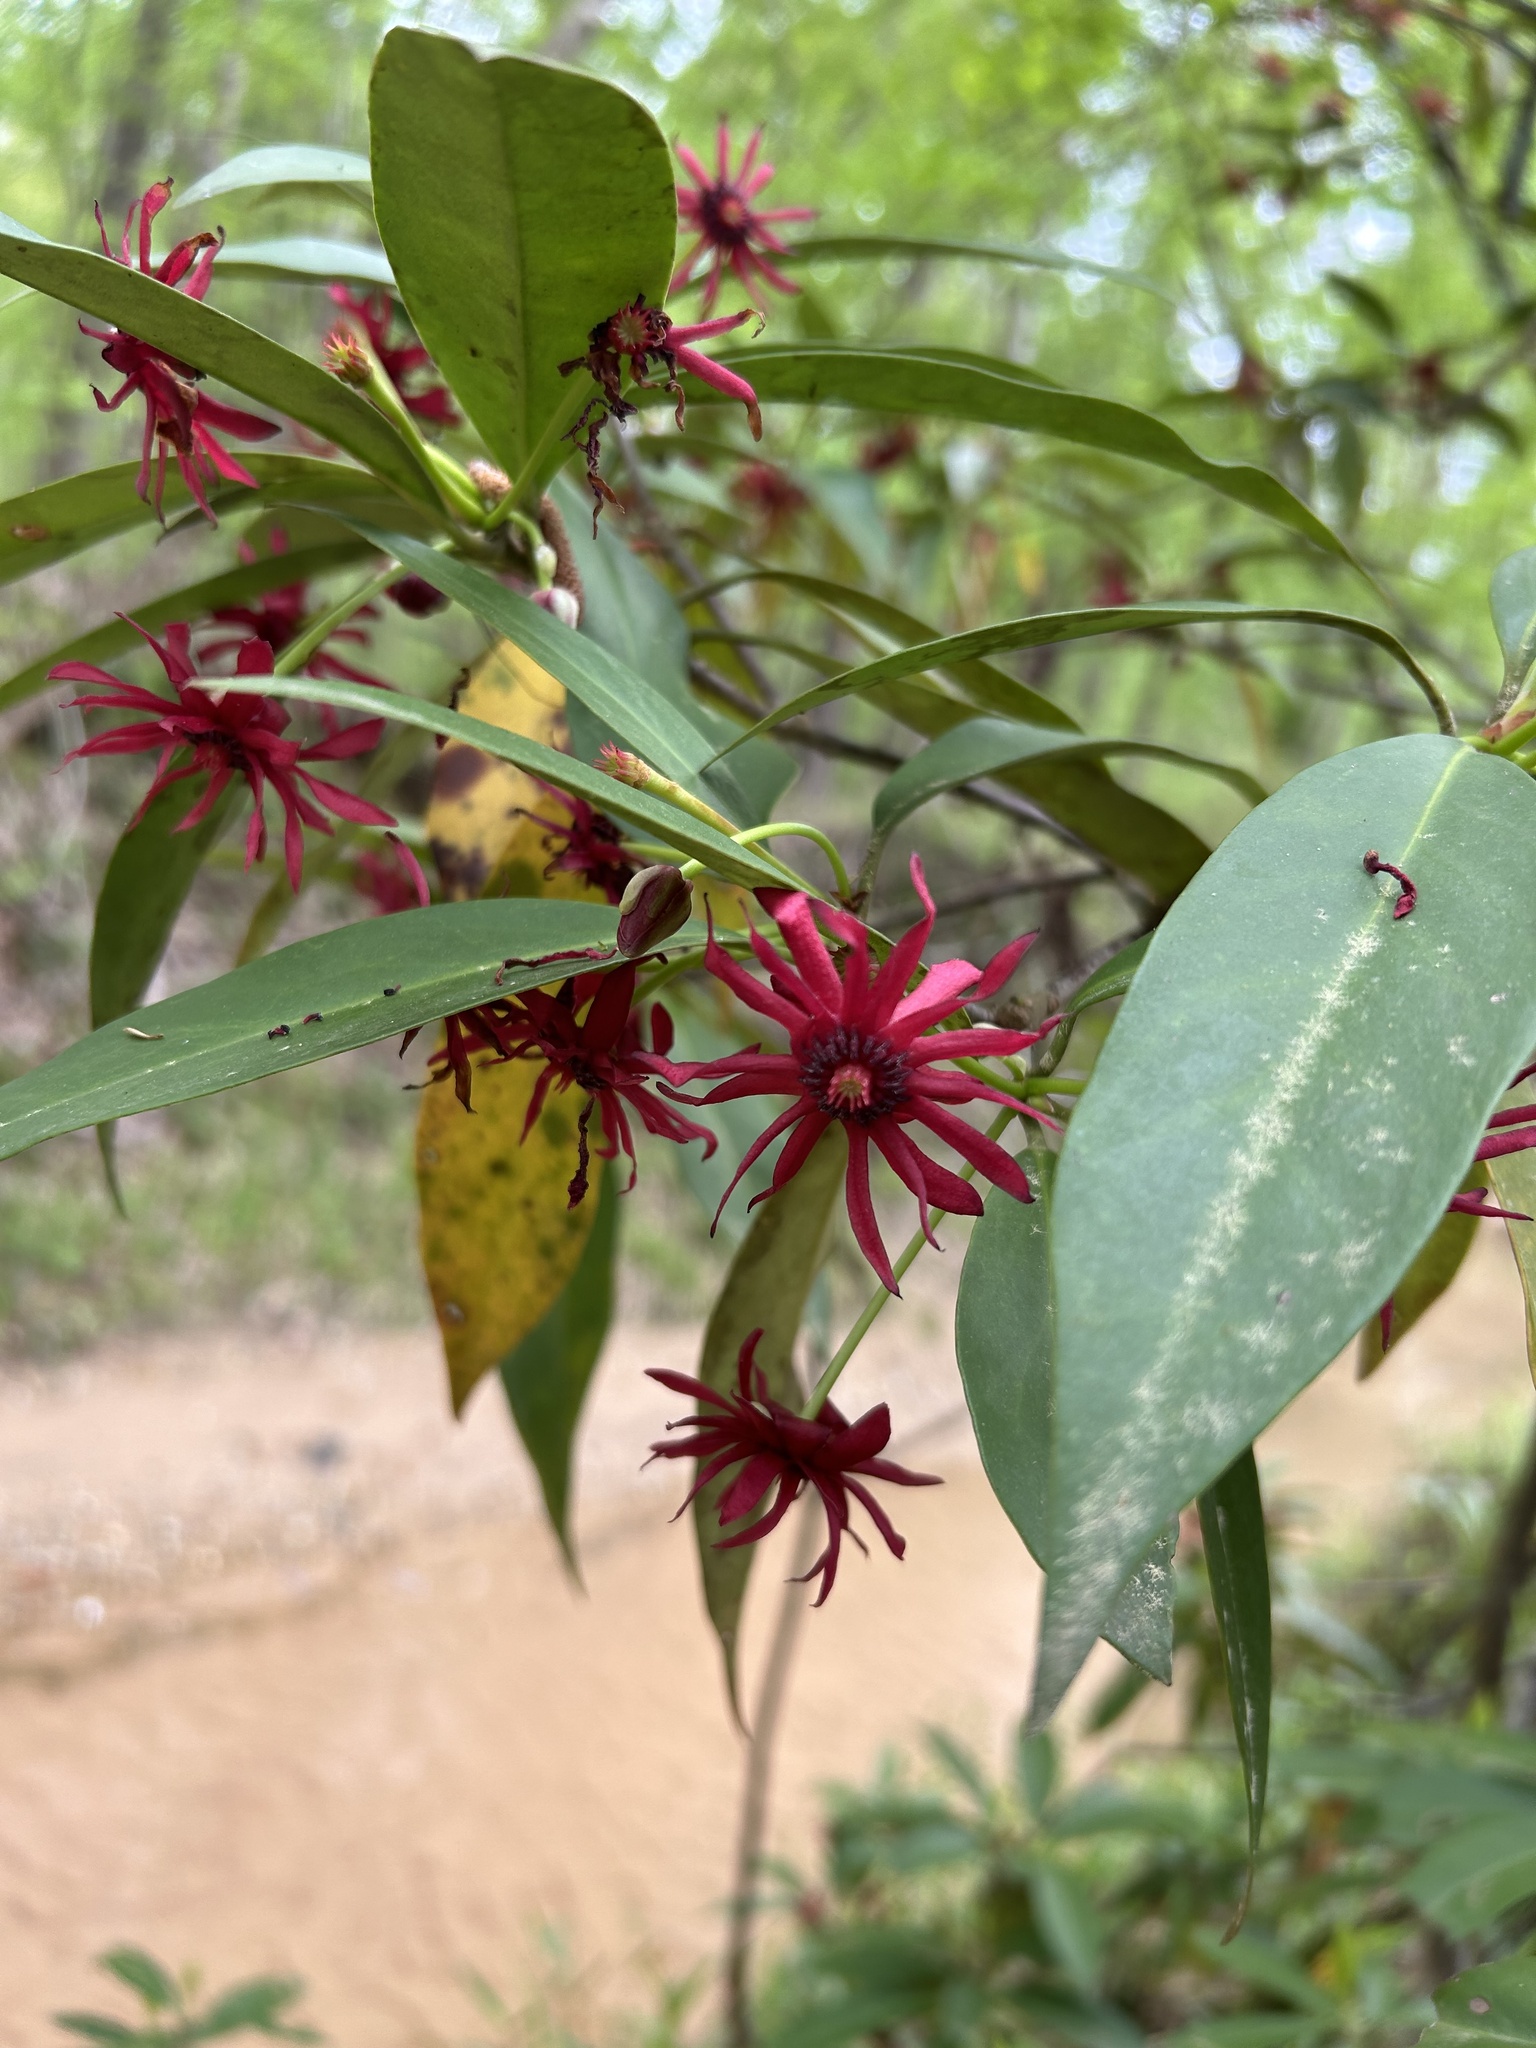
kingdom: Plantae
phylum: Tracheophyta
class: Magnoliopsida
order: Austrobaileyales
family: Schisandraceae
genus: Illicium
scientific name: Illicium floridanum
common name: Florida anisetree
